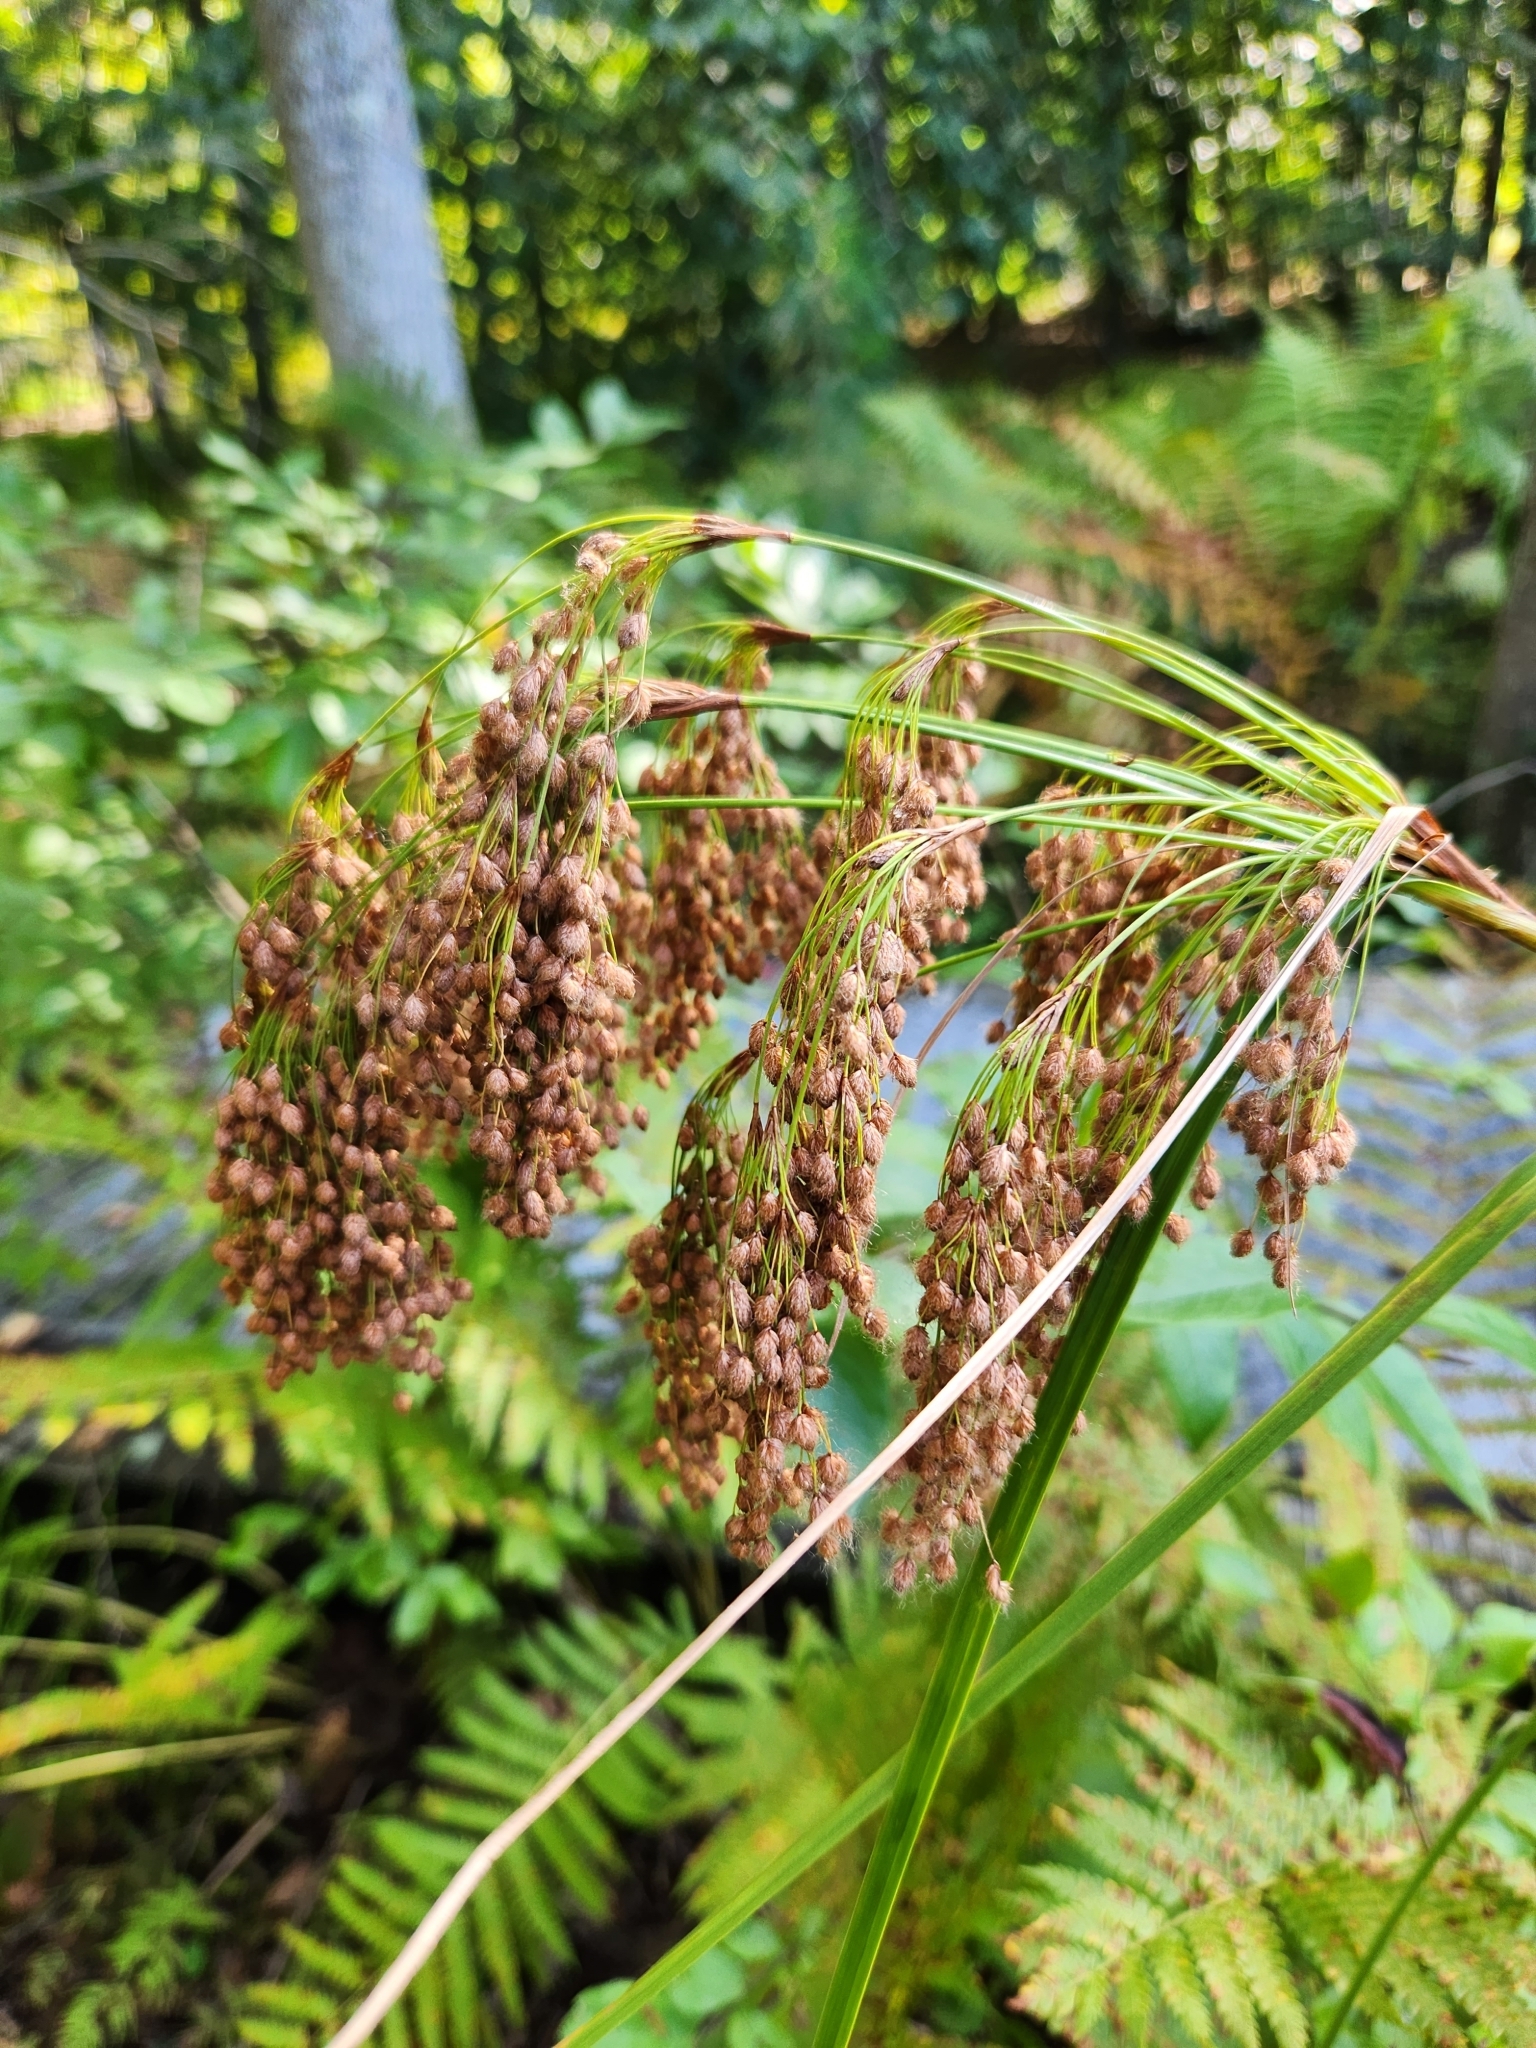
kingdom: Plantae
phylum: Tracheophyta
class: Liliopsida
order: Poales
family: Cyperaceae
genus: Scirpus
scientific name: Scirpus cyperinus
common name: Black-sheathed bulrush
